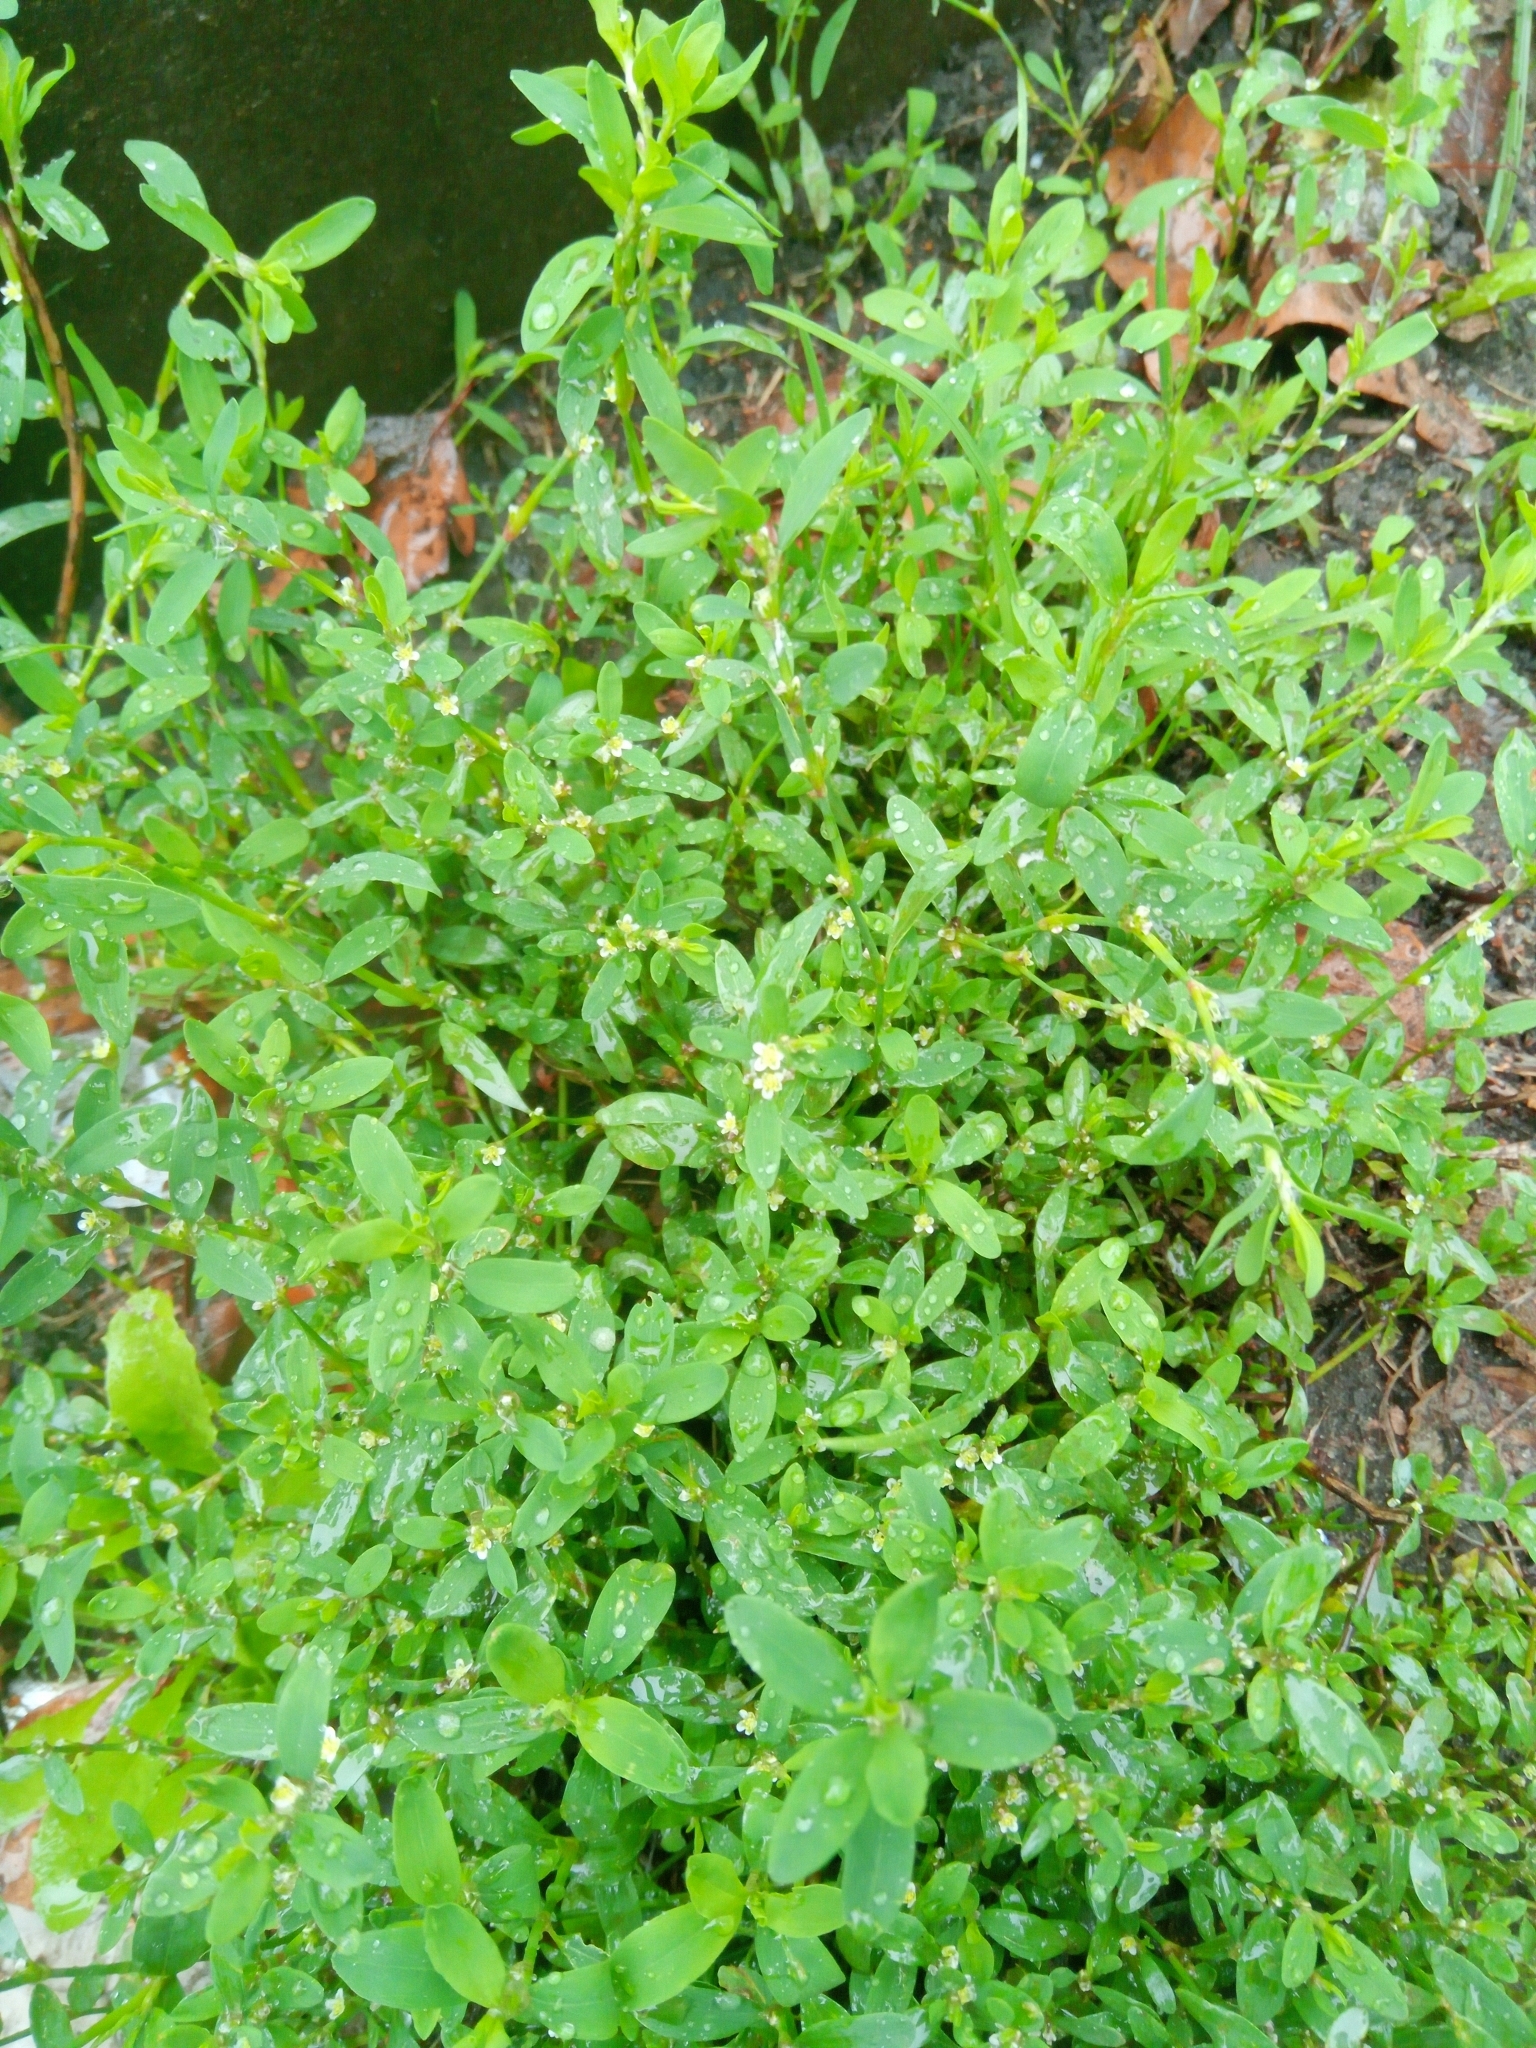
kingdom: Plantae
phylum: Tracheophyta
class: Magnoliopsida
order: Caryophyllales
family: Polygonaceae
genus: Polygonum
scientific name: Polygonum
